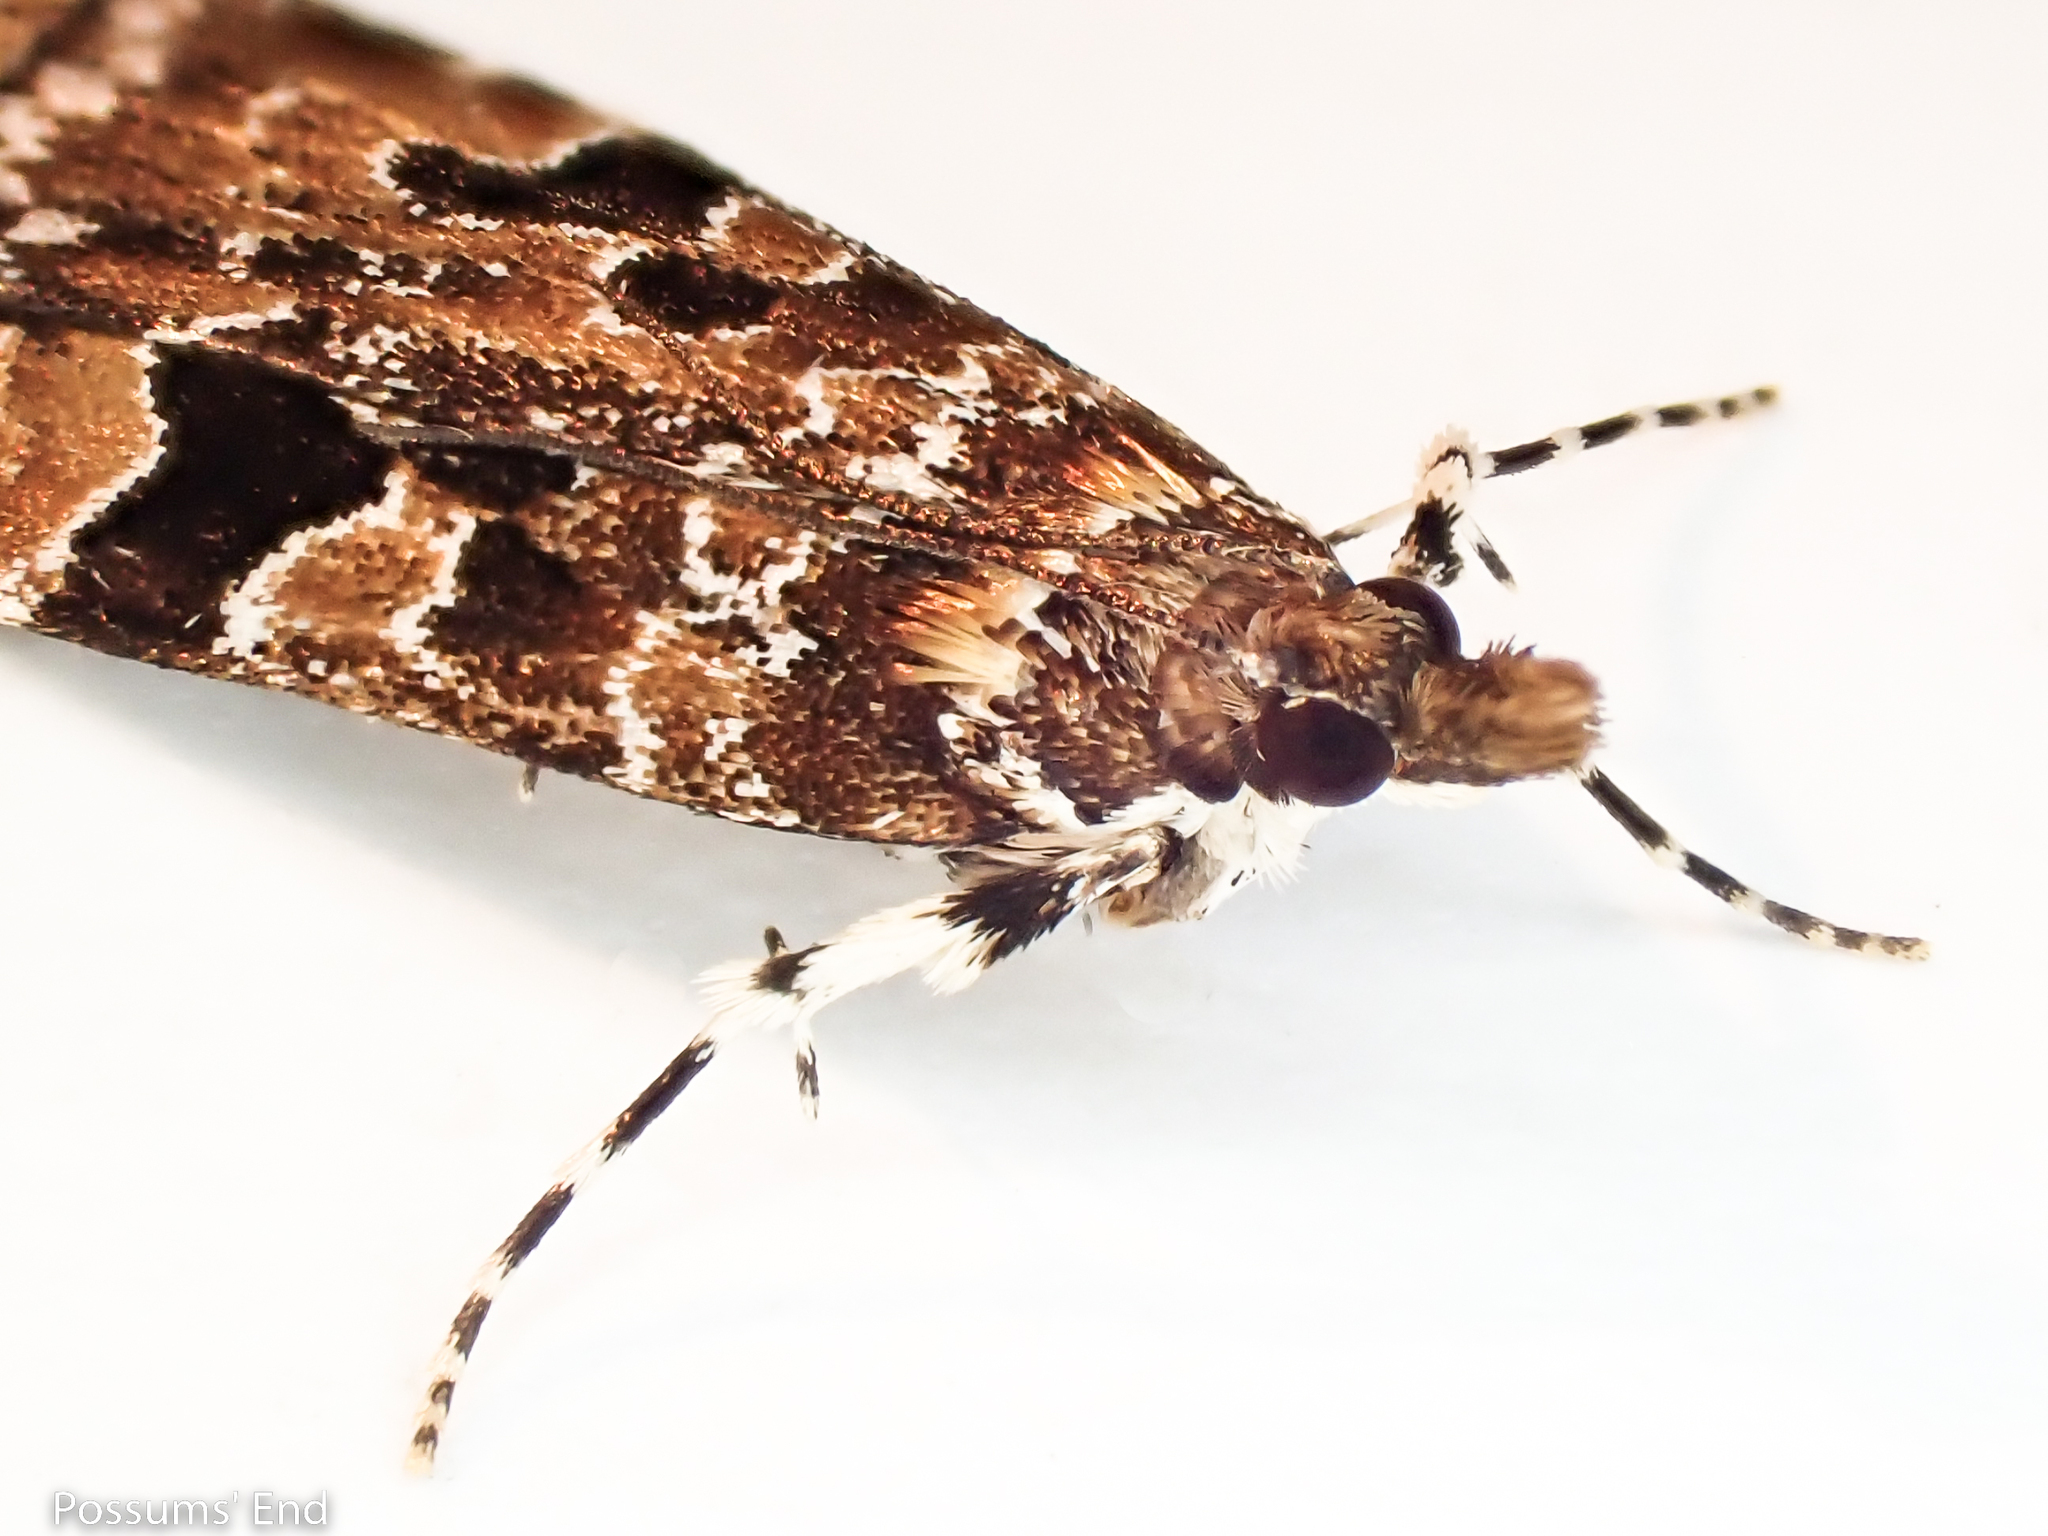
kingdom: Animalia
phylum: Arthropoda
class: Insecta
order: Lepidoptera
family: Crambidae
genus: Scoparia
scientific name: Scoparia ustimacula
